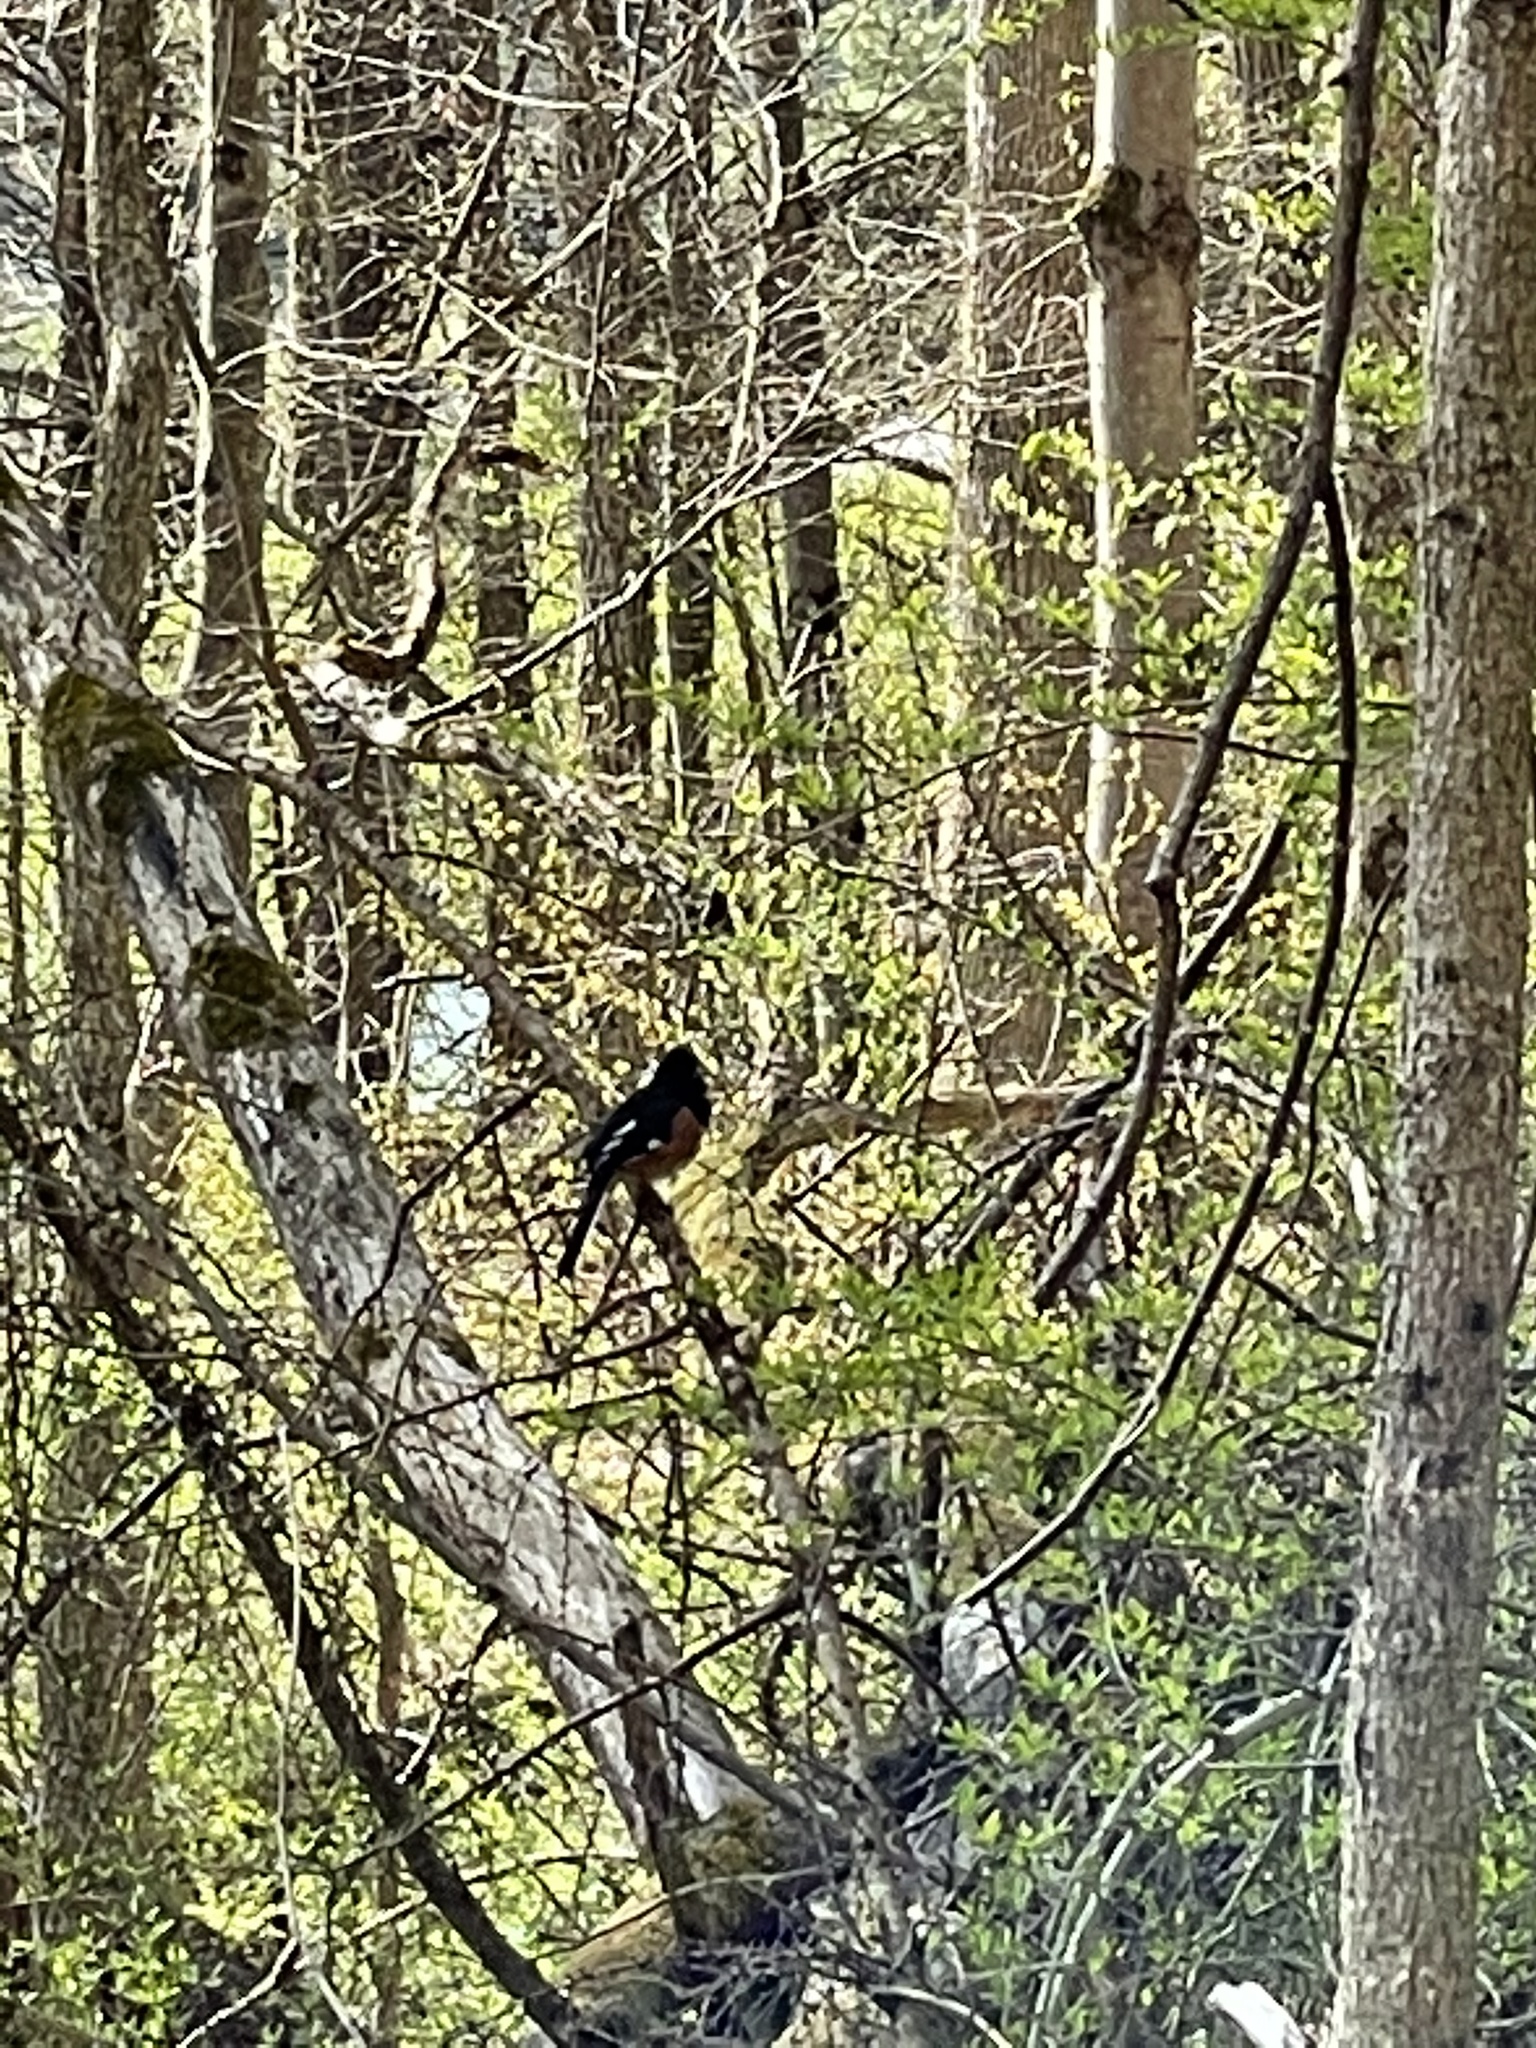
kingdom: Animalia
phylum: Chordata
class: Aves
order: Passeriformes
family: Passerellidae
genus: Pipilo
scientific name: Pipilo erythrophthalmus
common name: Eastern towhee
